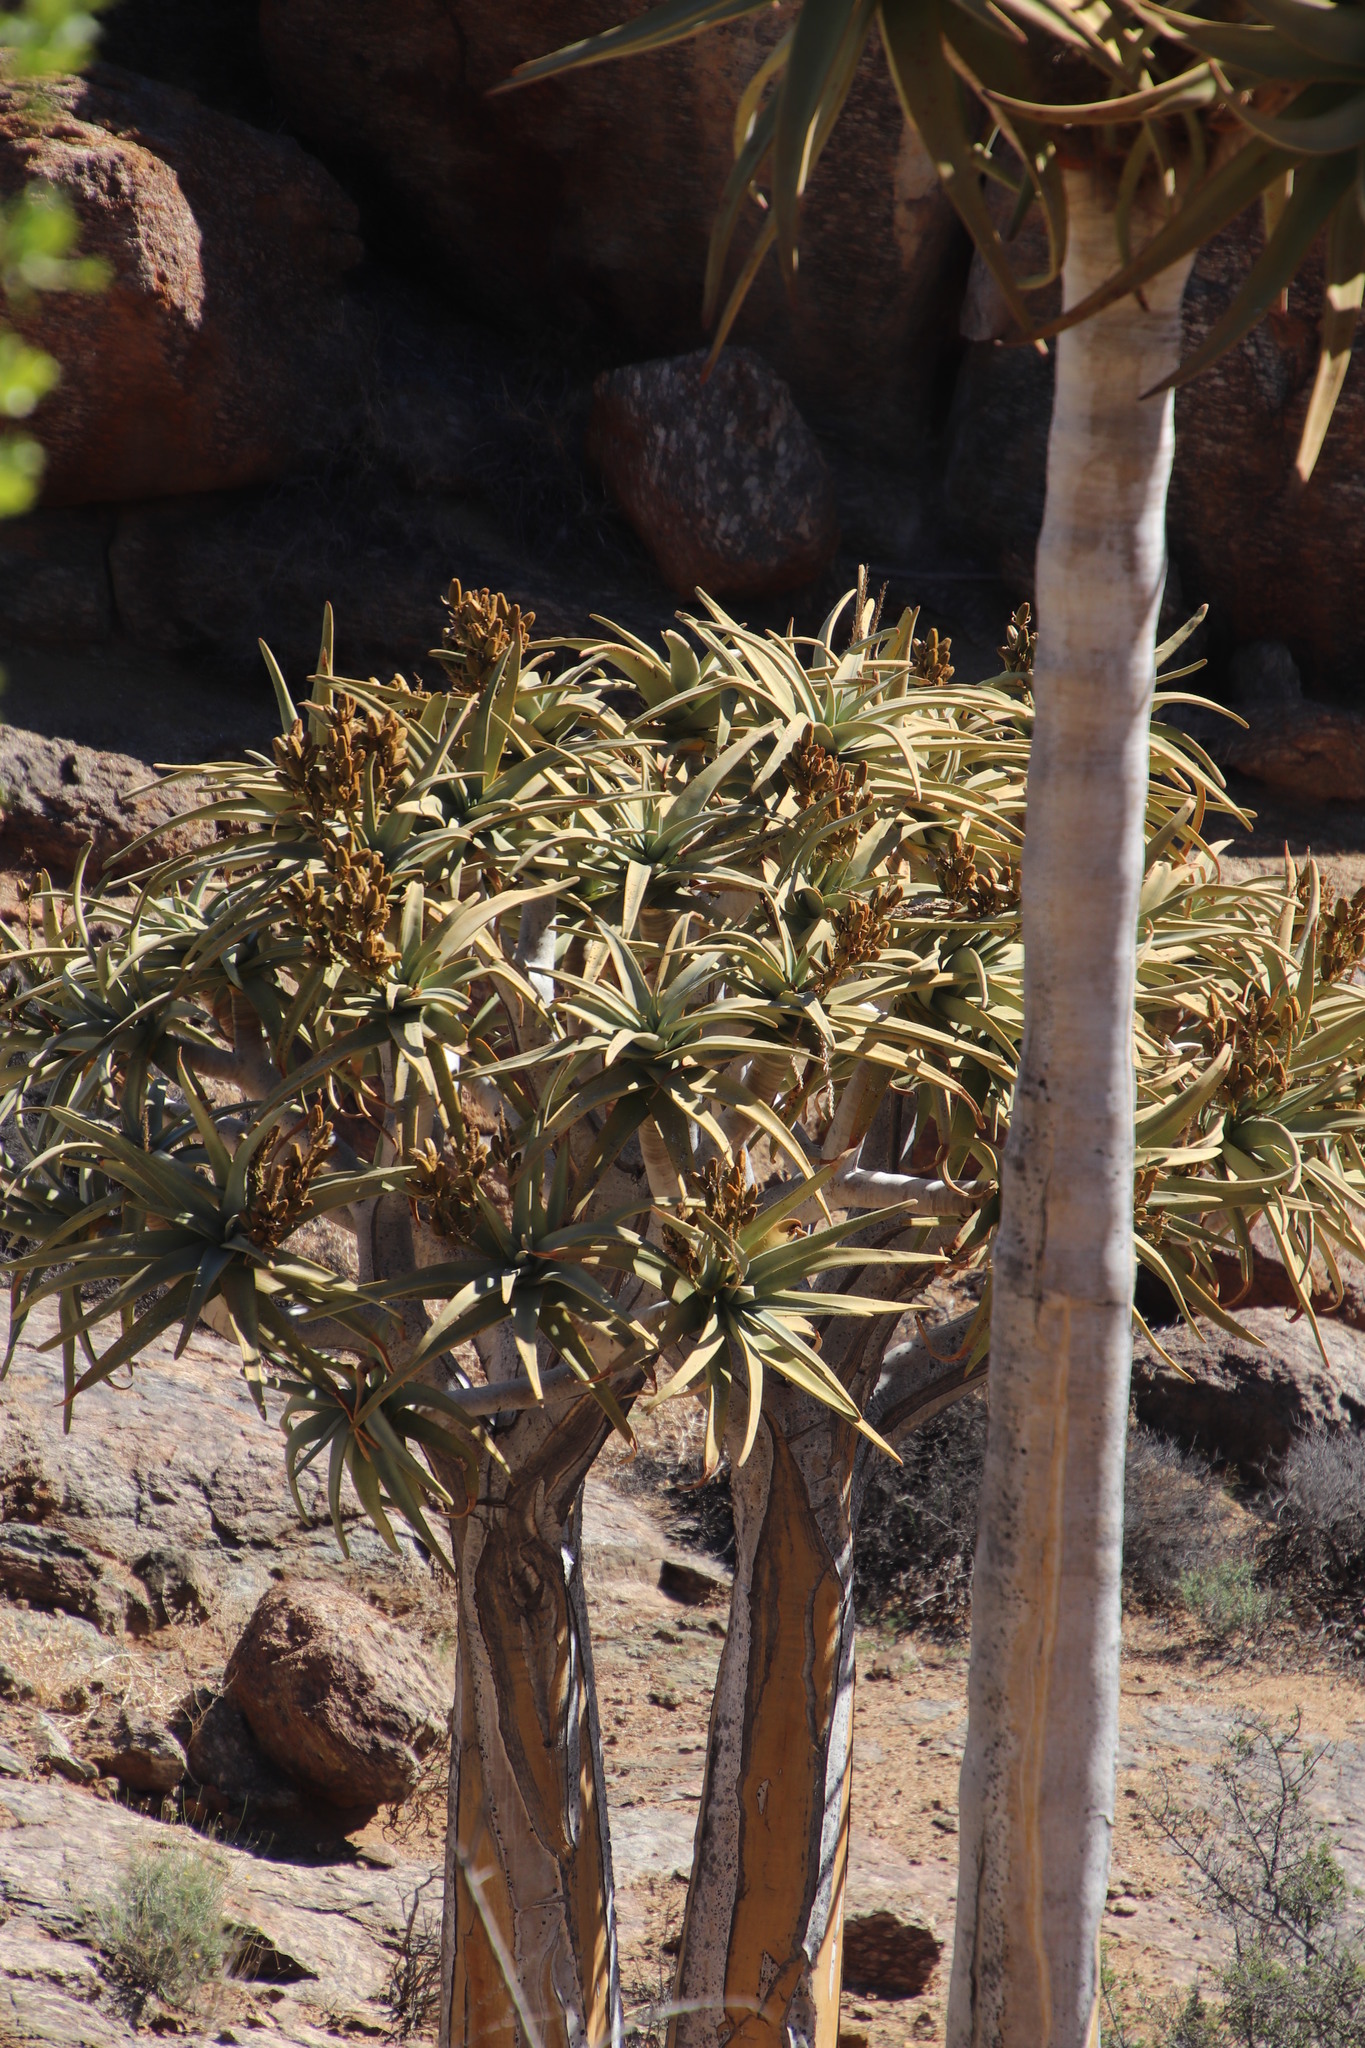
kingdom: Plantae
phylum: Tracheophyta
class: Liliopsida
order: Asparagales
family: Asphodelaceae
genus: Aloidendron
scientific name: Aloidendron dichotomum
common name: Quiver tree
